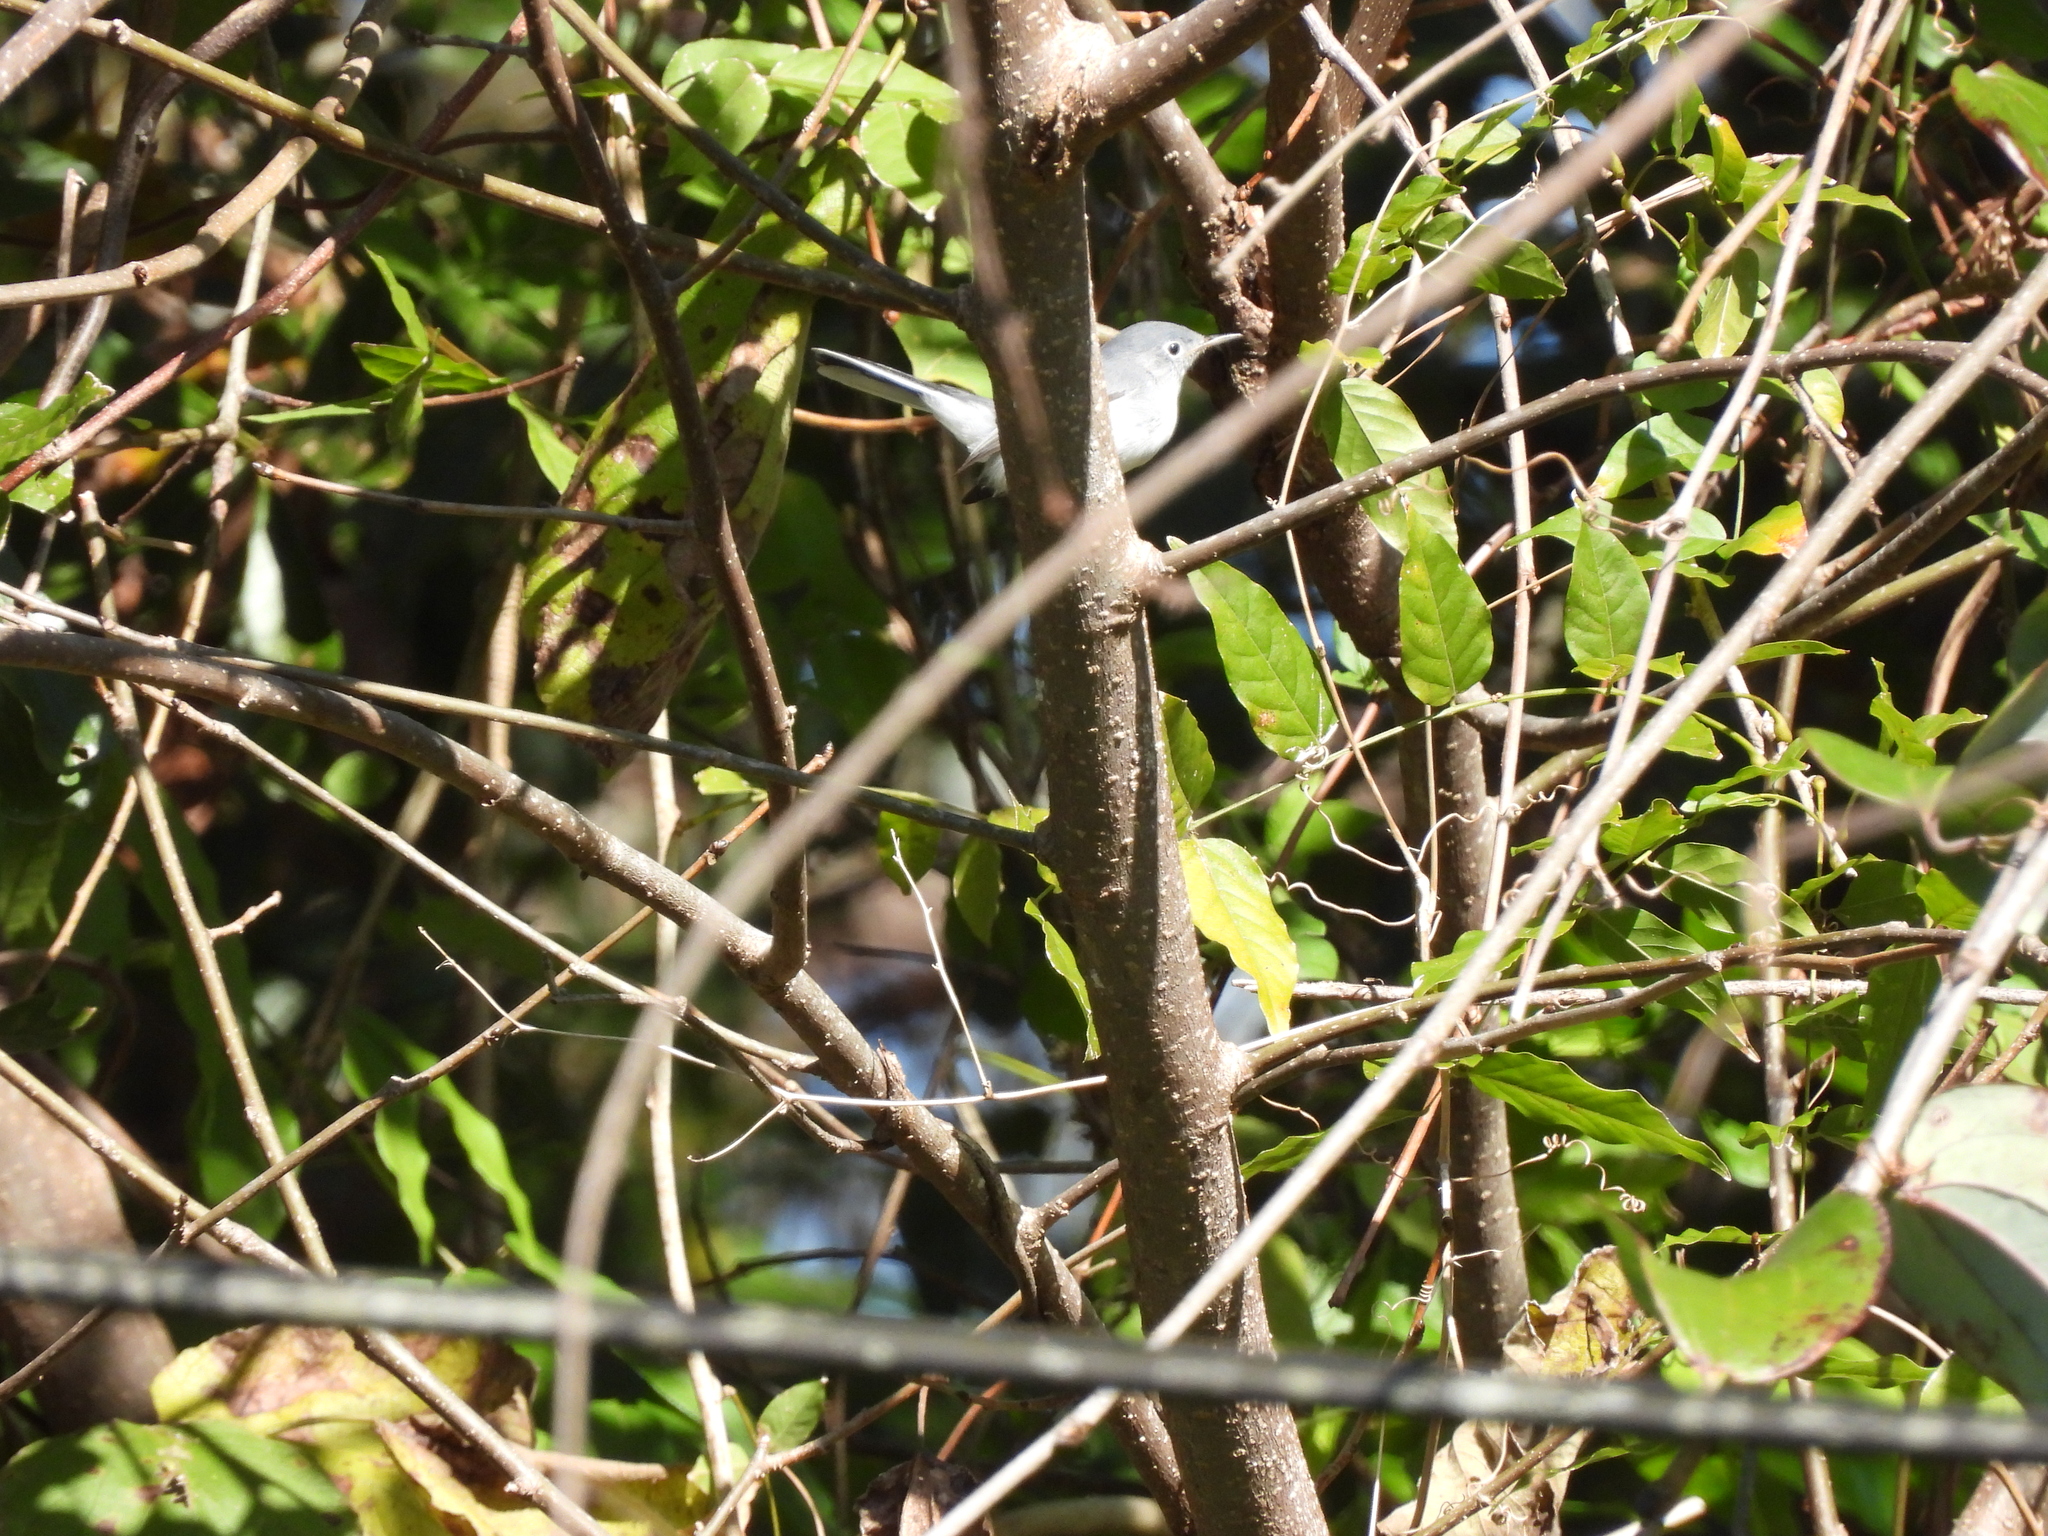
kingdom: Animalia
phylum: Chordata
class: Aves
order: Passeriformes
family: Polioptilidae
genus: Polioptila
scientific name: Polioptila caerulea
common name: Blue-gray gnatcatcher
